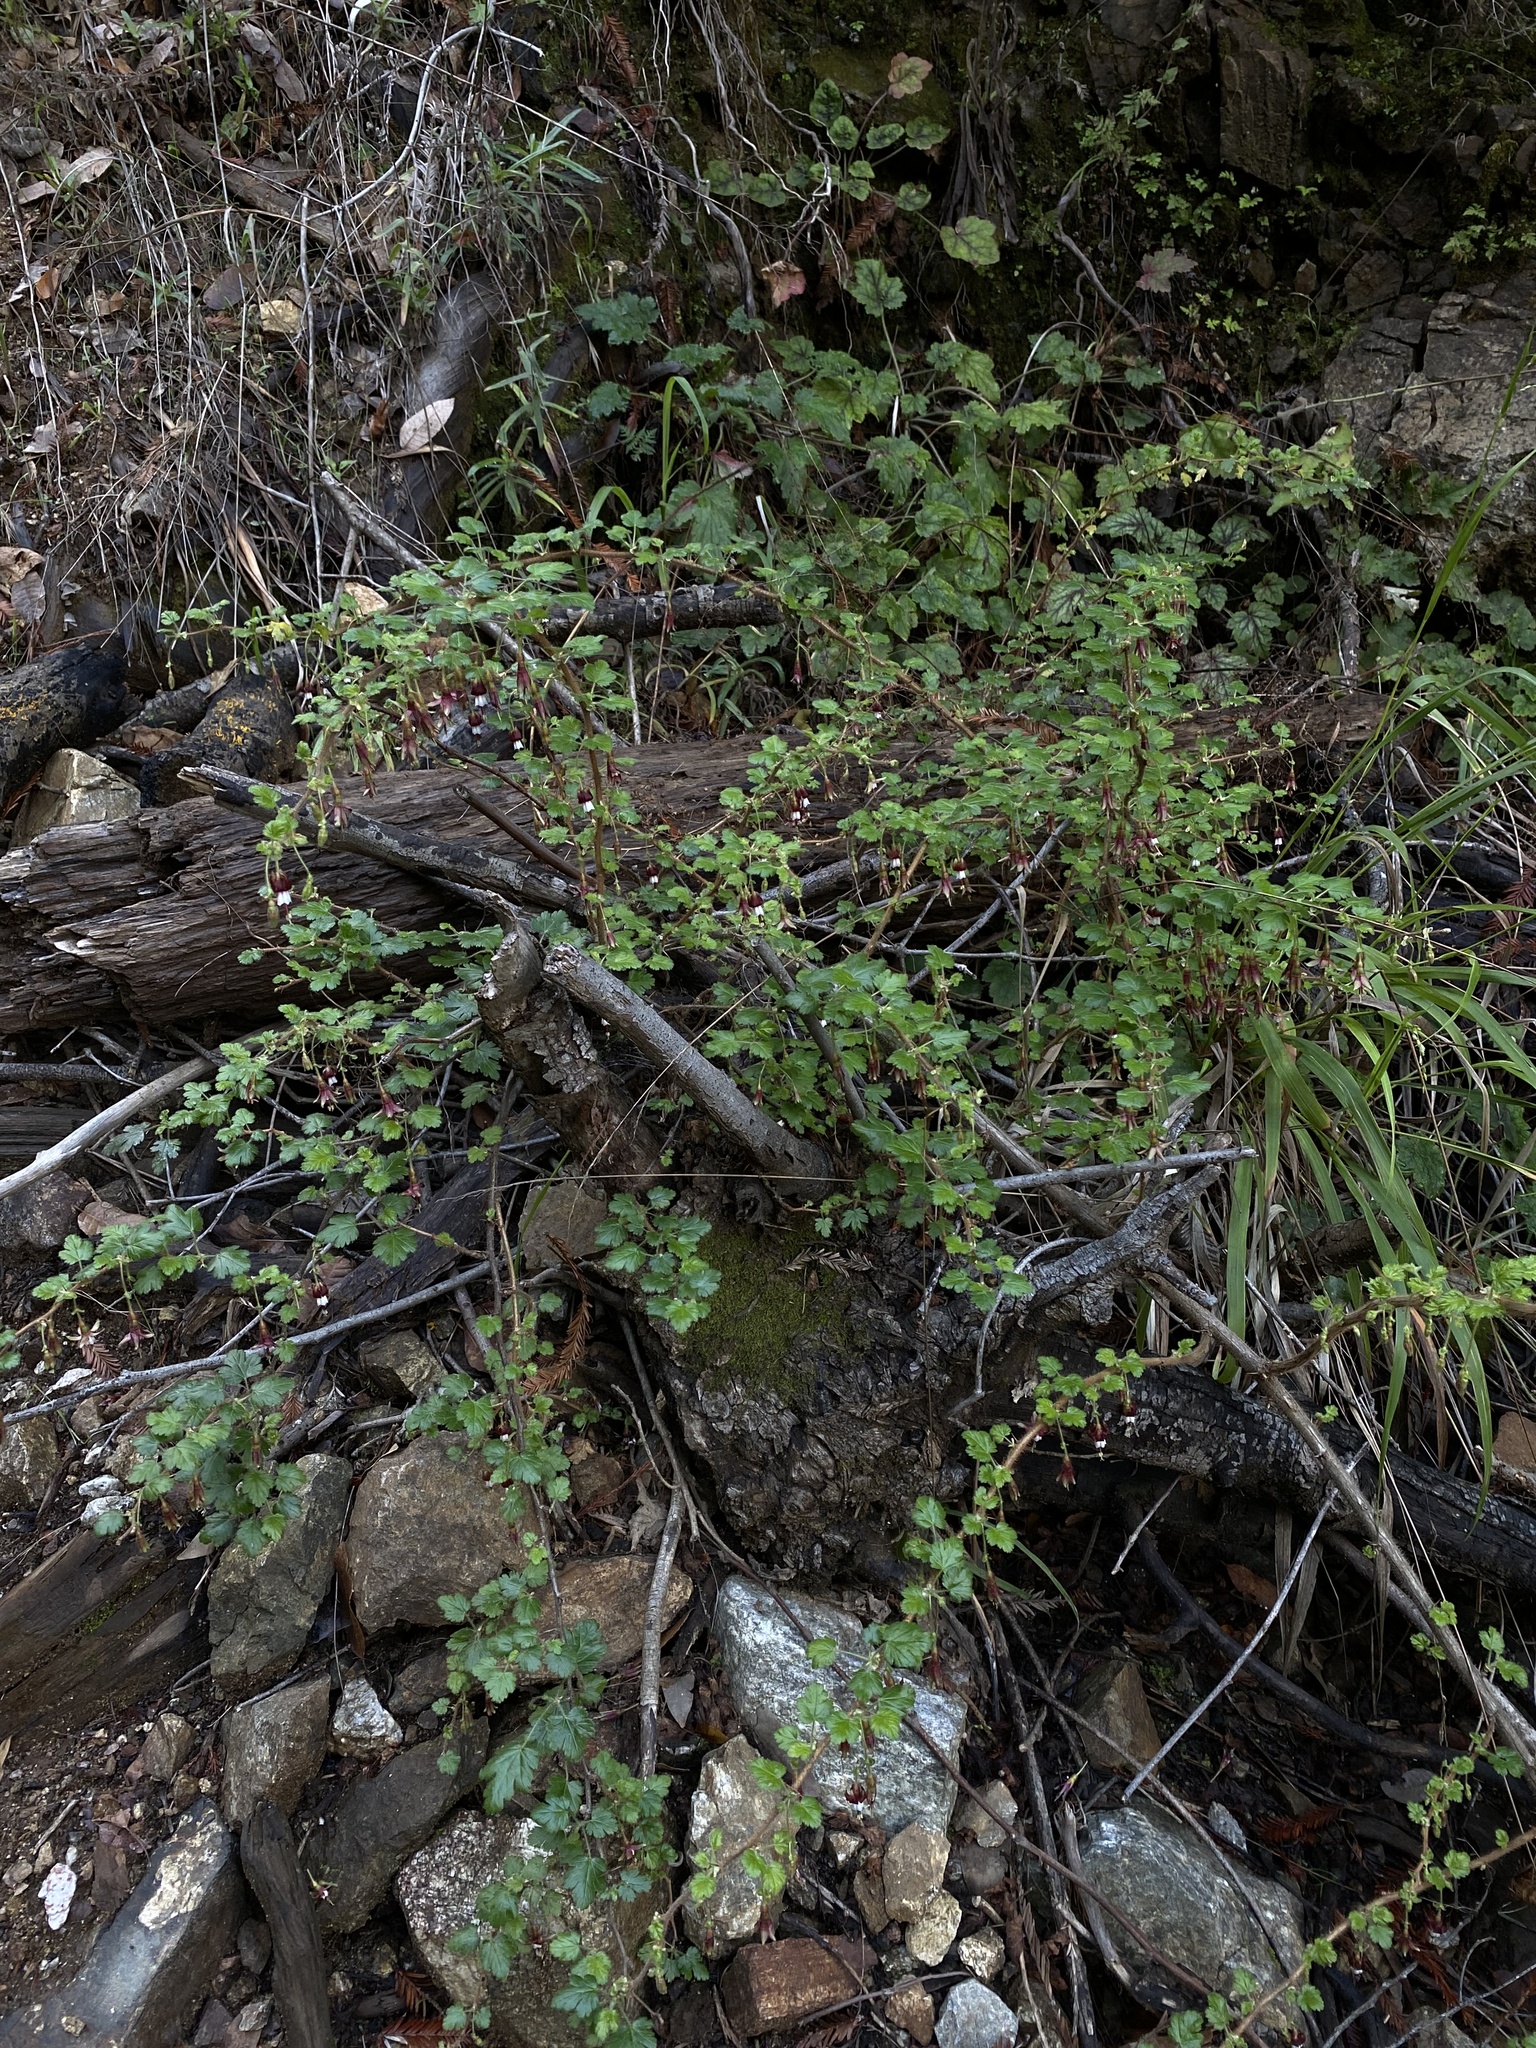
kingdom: Plantae
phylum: Tracheophyta
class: Magnoliopsida
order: Saxifragales
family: Grossulariaceae
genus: Ribes
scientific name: Ribes sericeum
